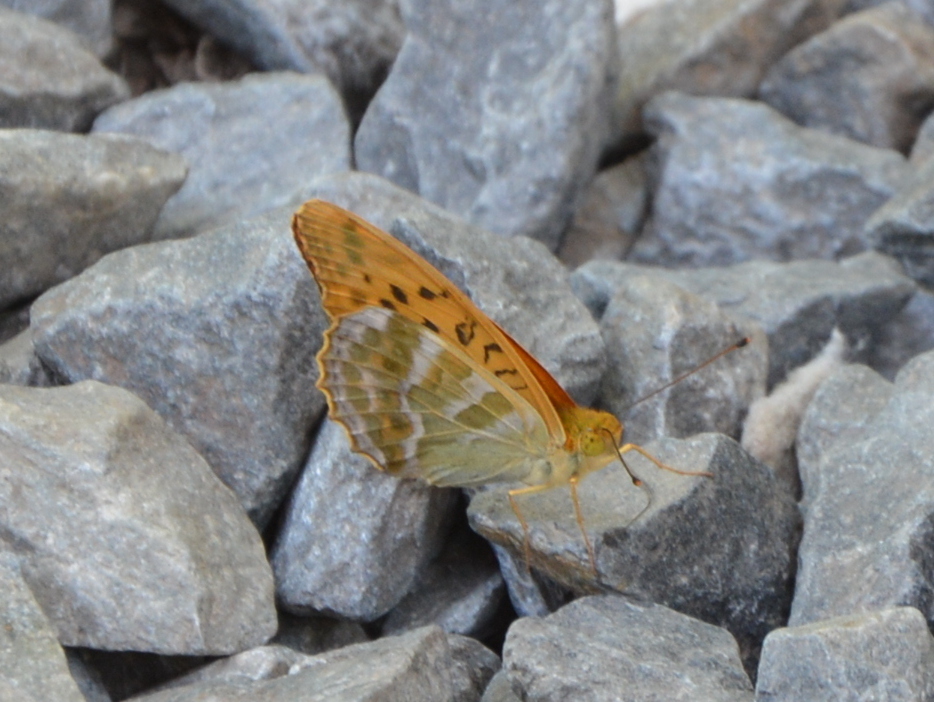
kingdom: Animalia
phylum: Arthropoda
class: Insecta
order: Lepidoptera
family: Nymphalidae
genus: Argynnis
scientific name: Argynnis paphia
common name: Silver-washed fritillary
